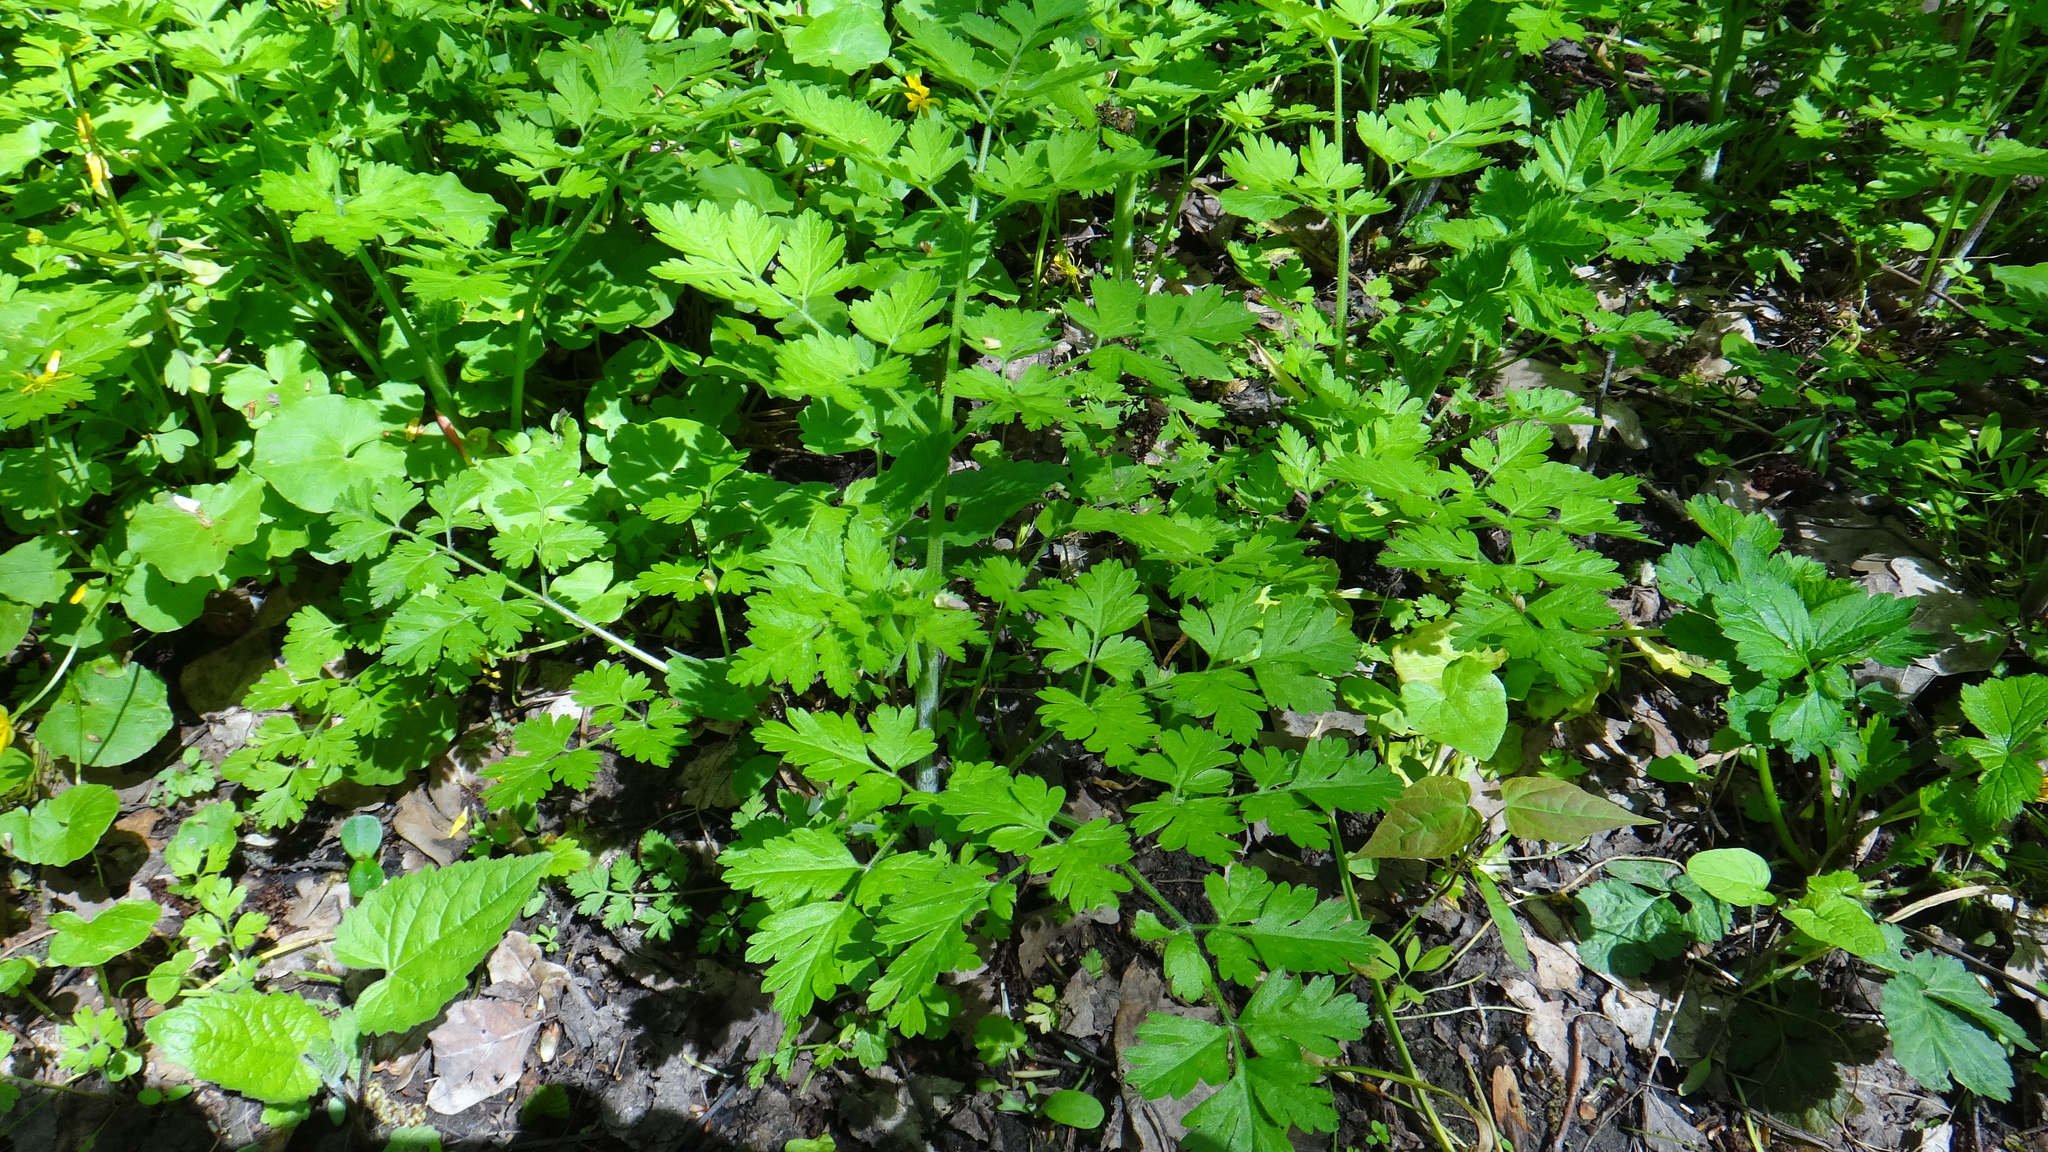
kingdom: Plantae
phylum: Tracheophyta
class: Magnoliopsida
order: Apiales
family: Apiaceae
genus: Chaerophyllum
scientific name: Chaerophyllum temulum
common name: Rough chervil
